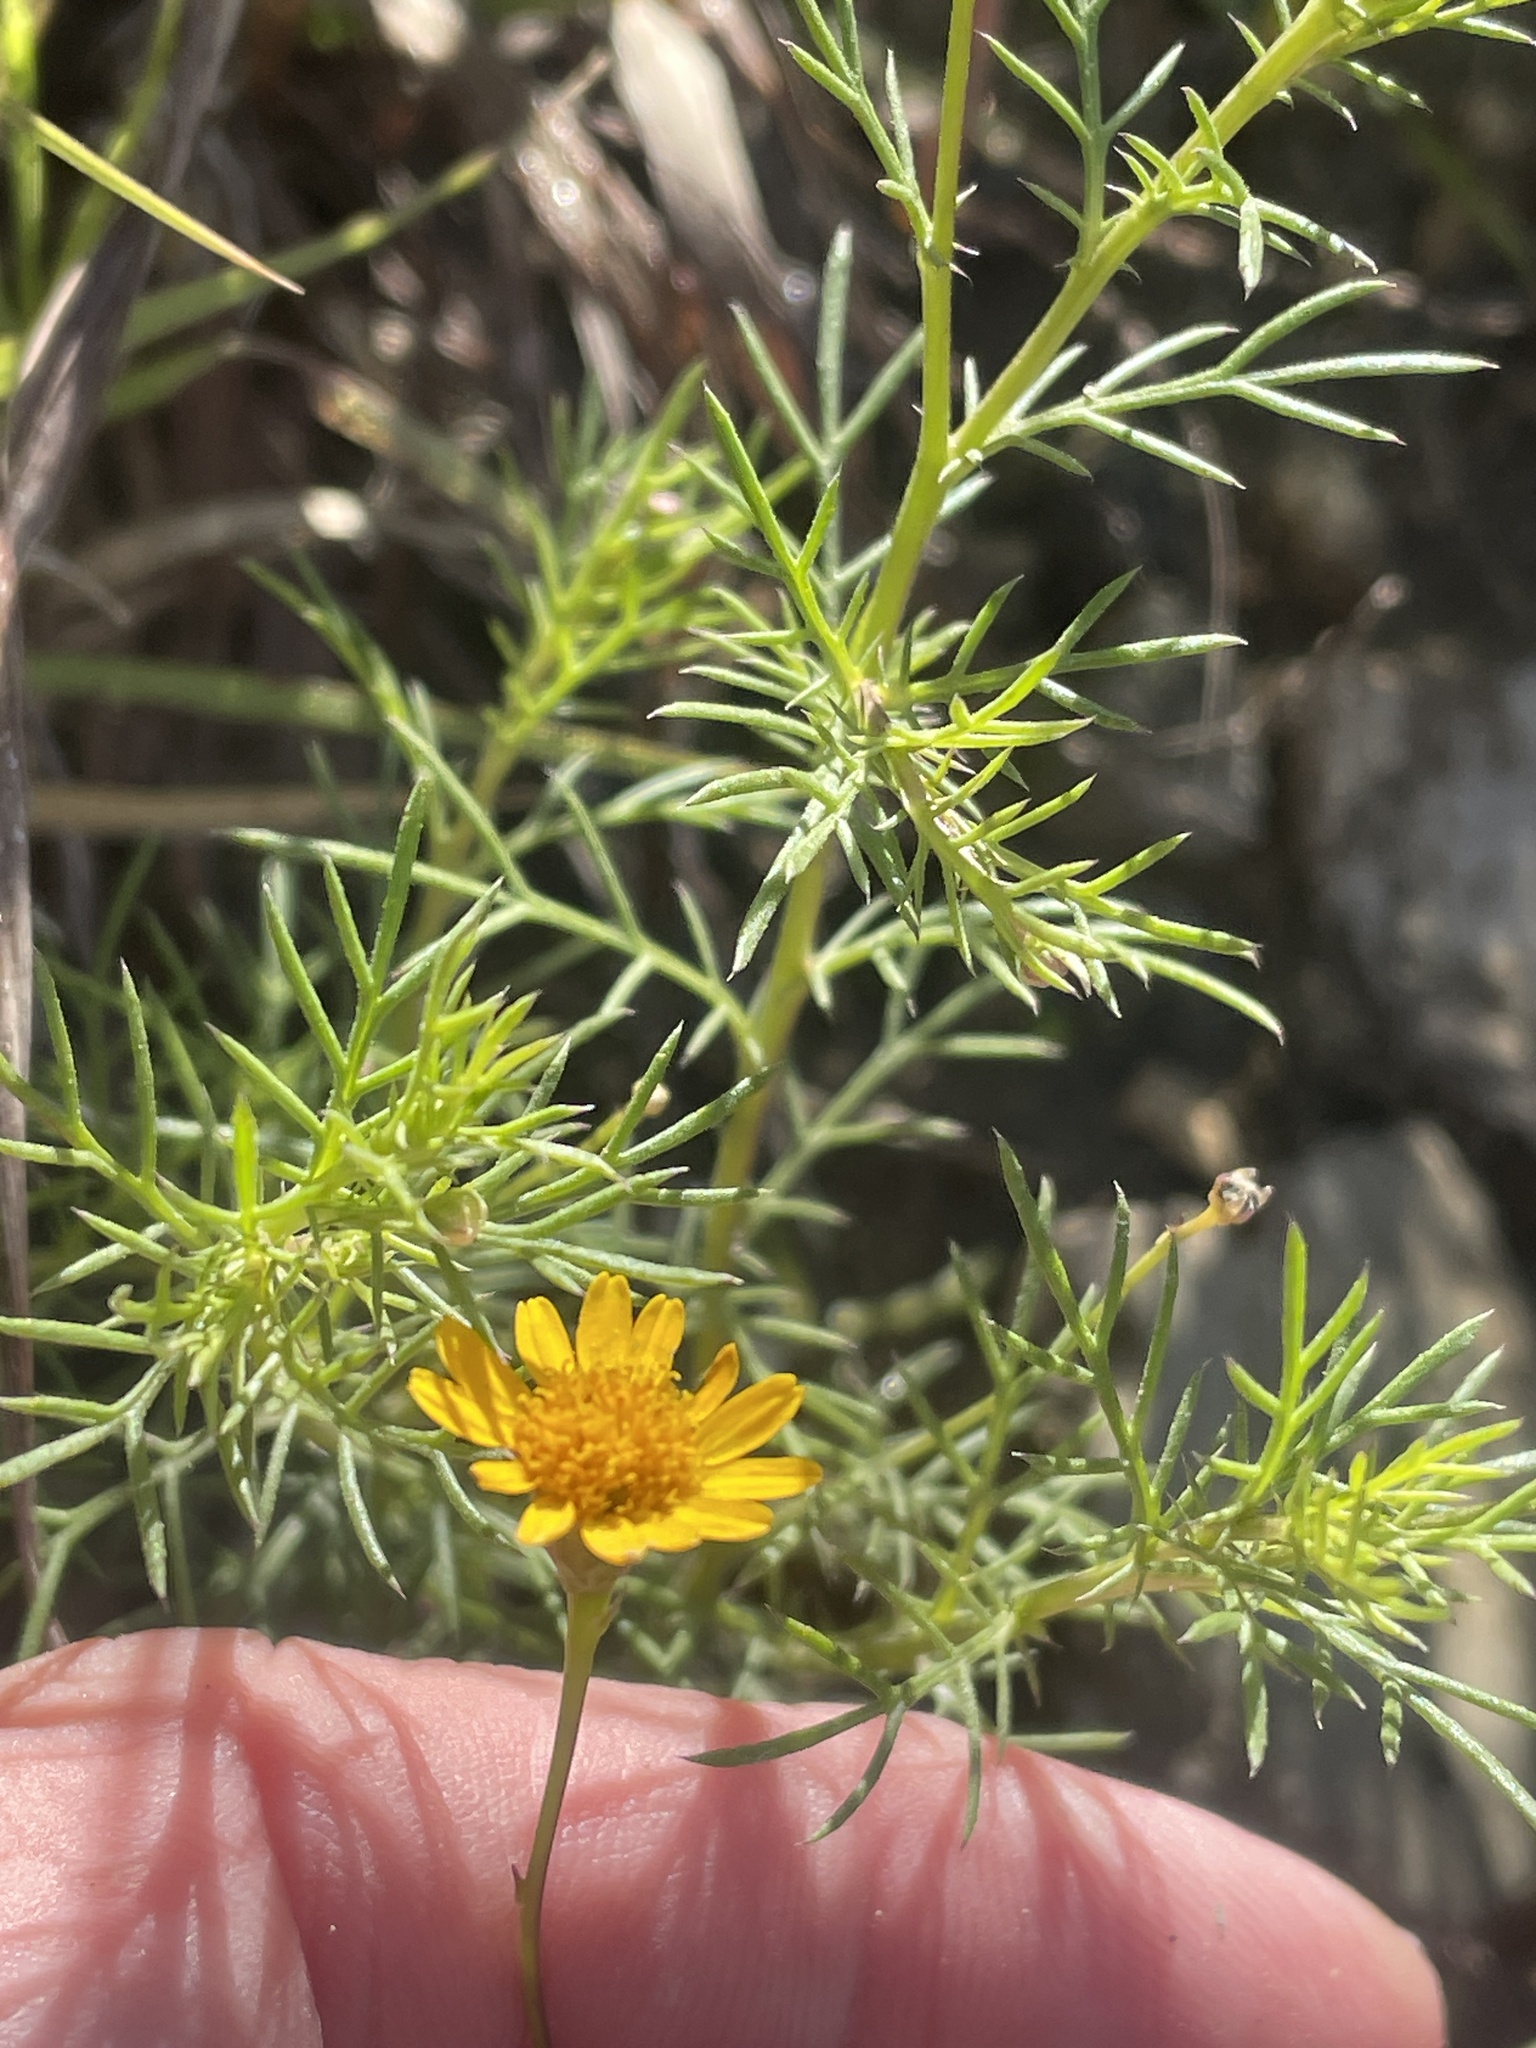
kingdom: Plantae
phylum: Tracheophyta
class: Magnoliopsida
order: Asterales
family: Asteraceae
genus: Thymophylla
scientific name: Thymophylla tenuiloba
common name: Dahlberg's daisy
